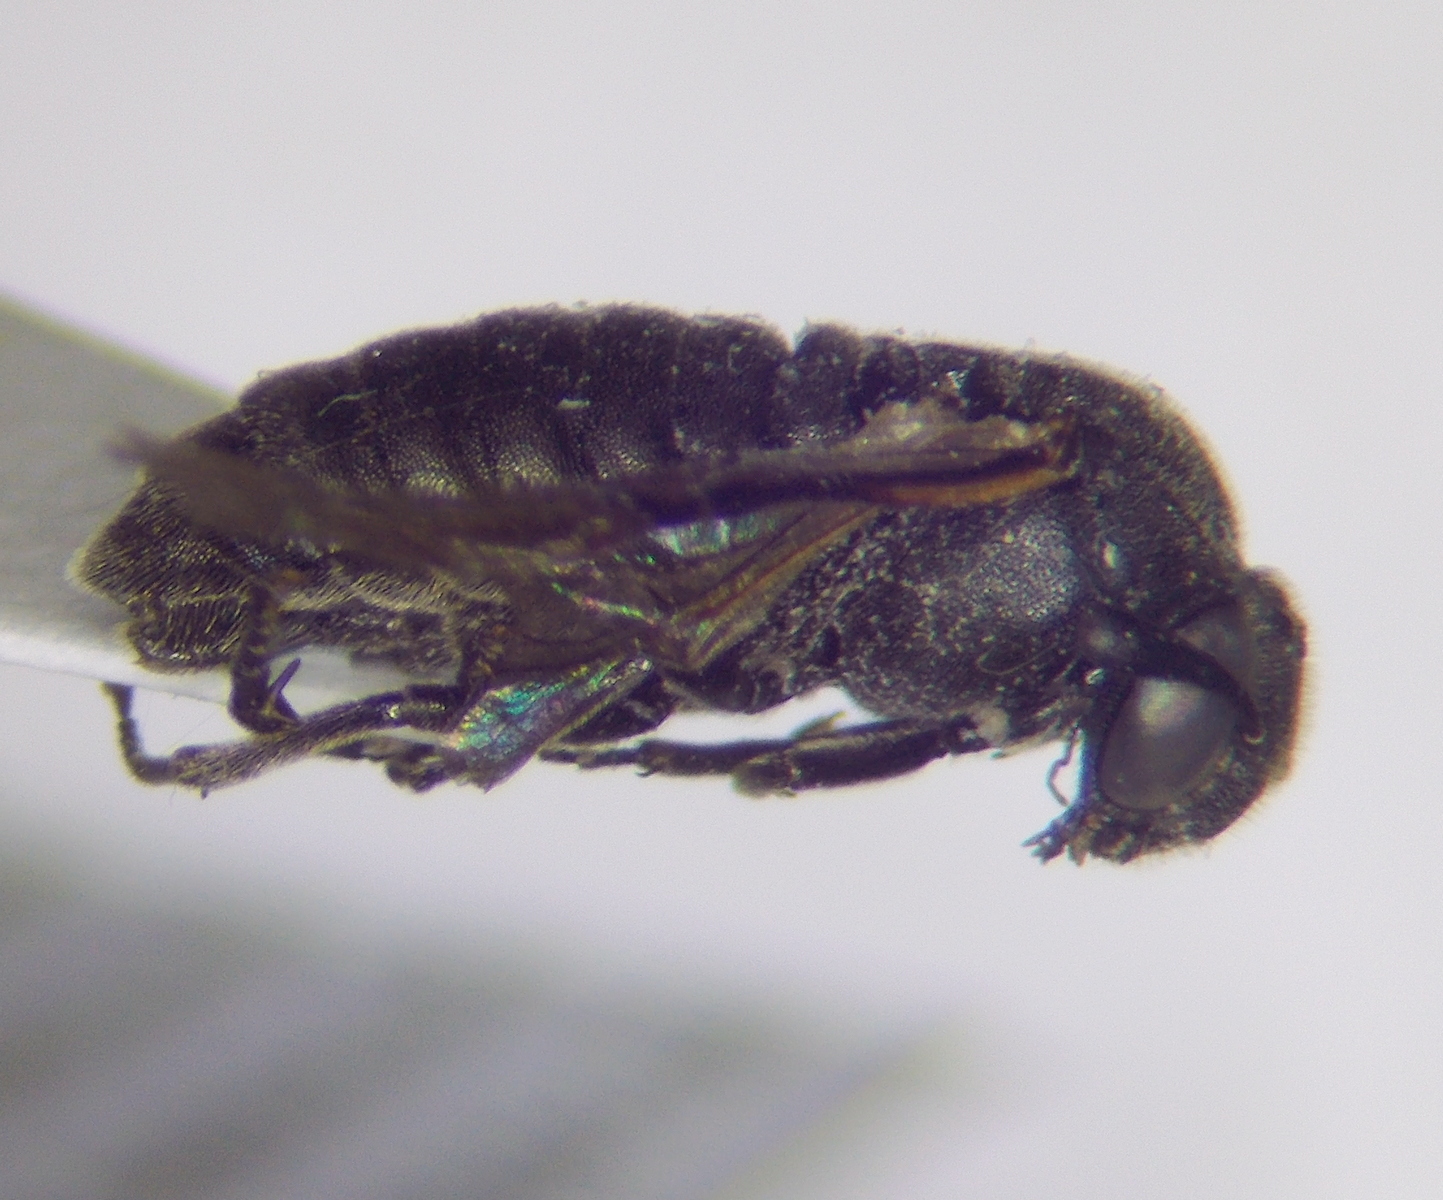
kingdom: Animalia
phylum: Arthropoda
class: Insecta
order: Hymenoptera
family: Cimbicidae
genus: Corynis
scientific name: Corynis obscura
